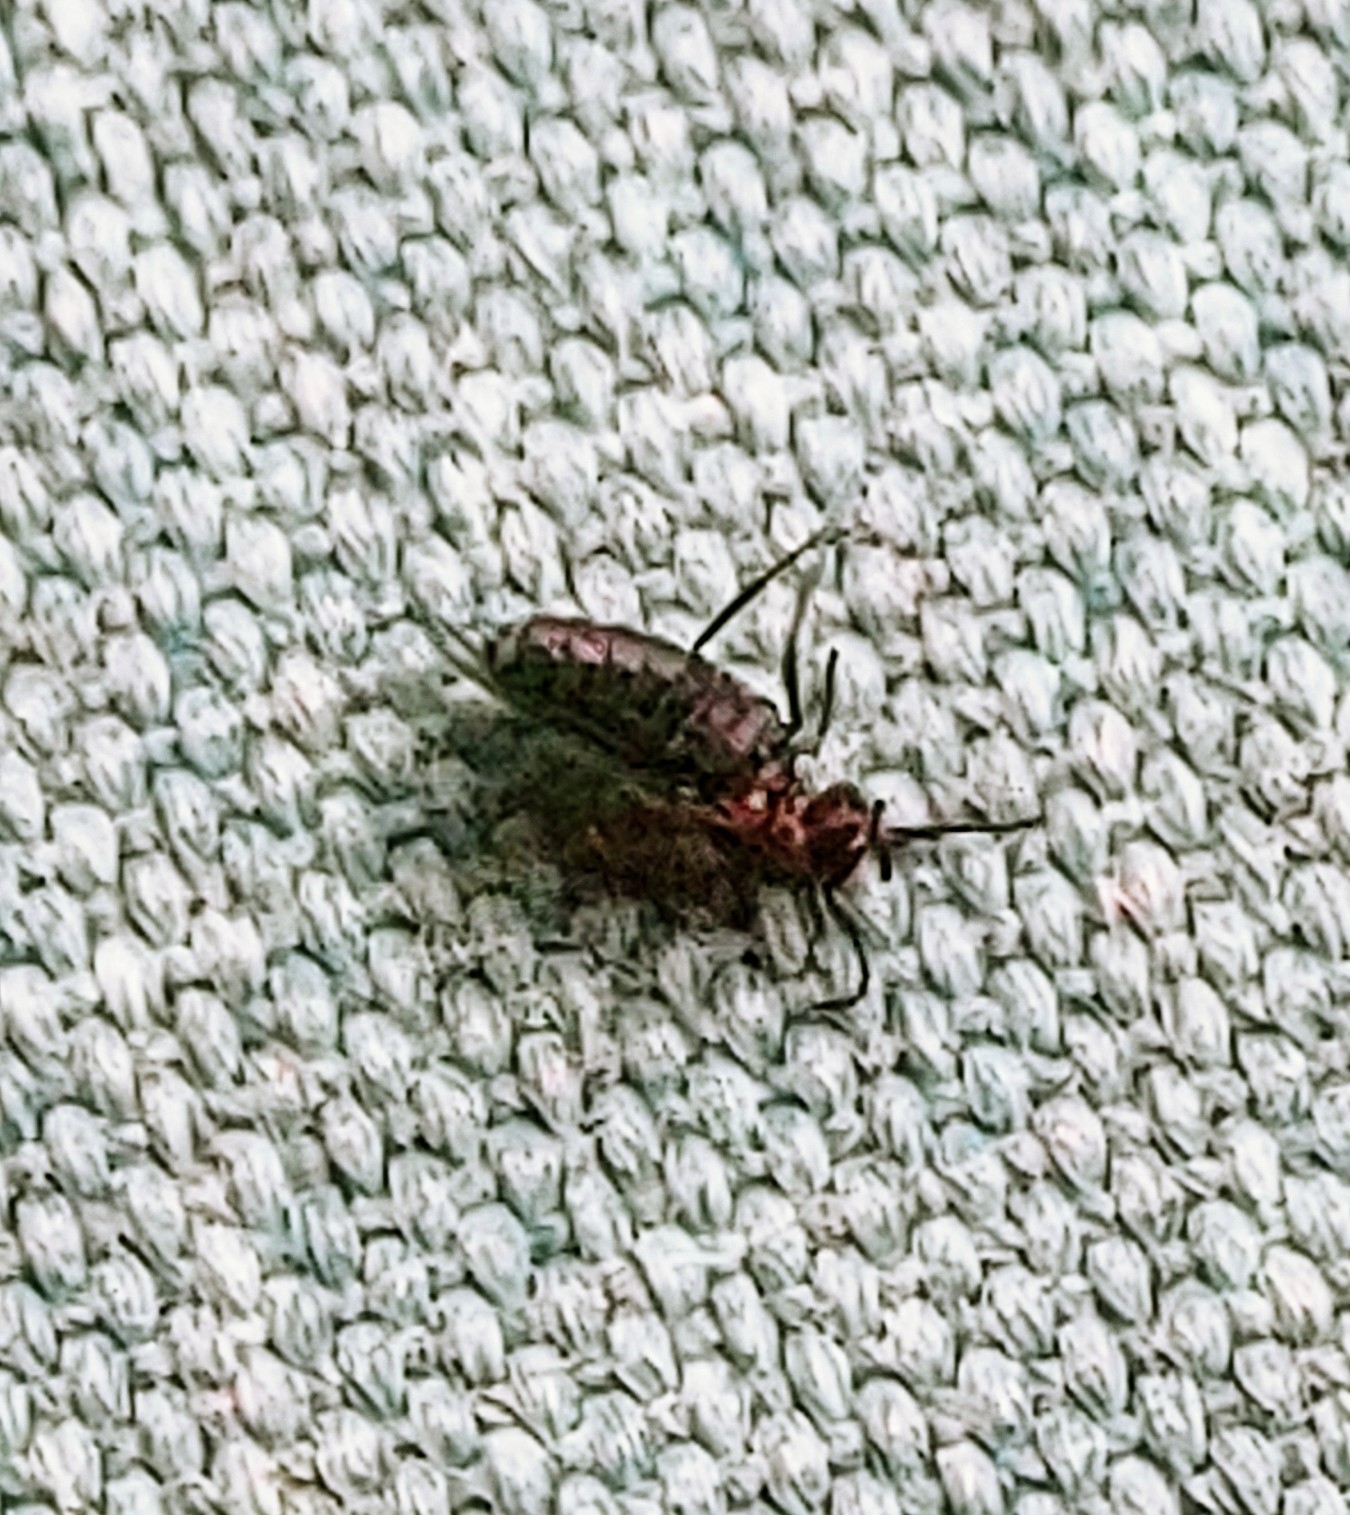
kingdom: Animalia
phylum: Arthropoda
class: Insecta
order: Diptera
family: Bibionidae
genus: Dilophus
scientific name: Dilophus orbatus
